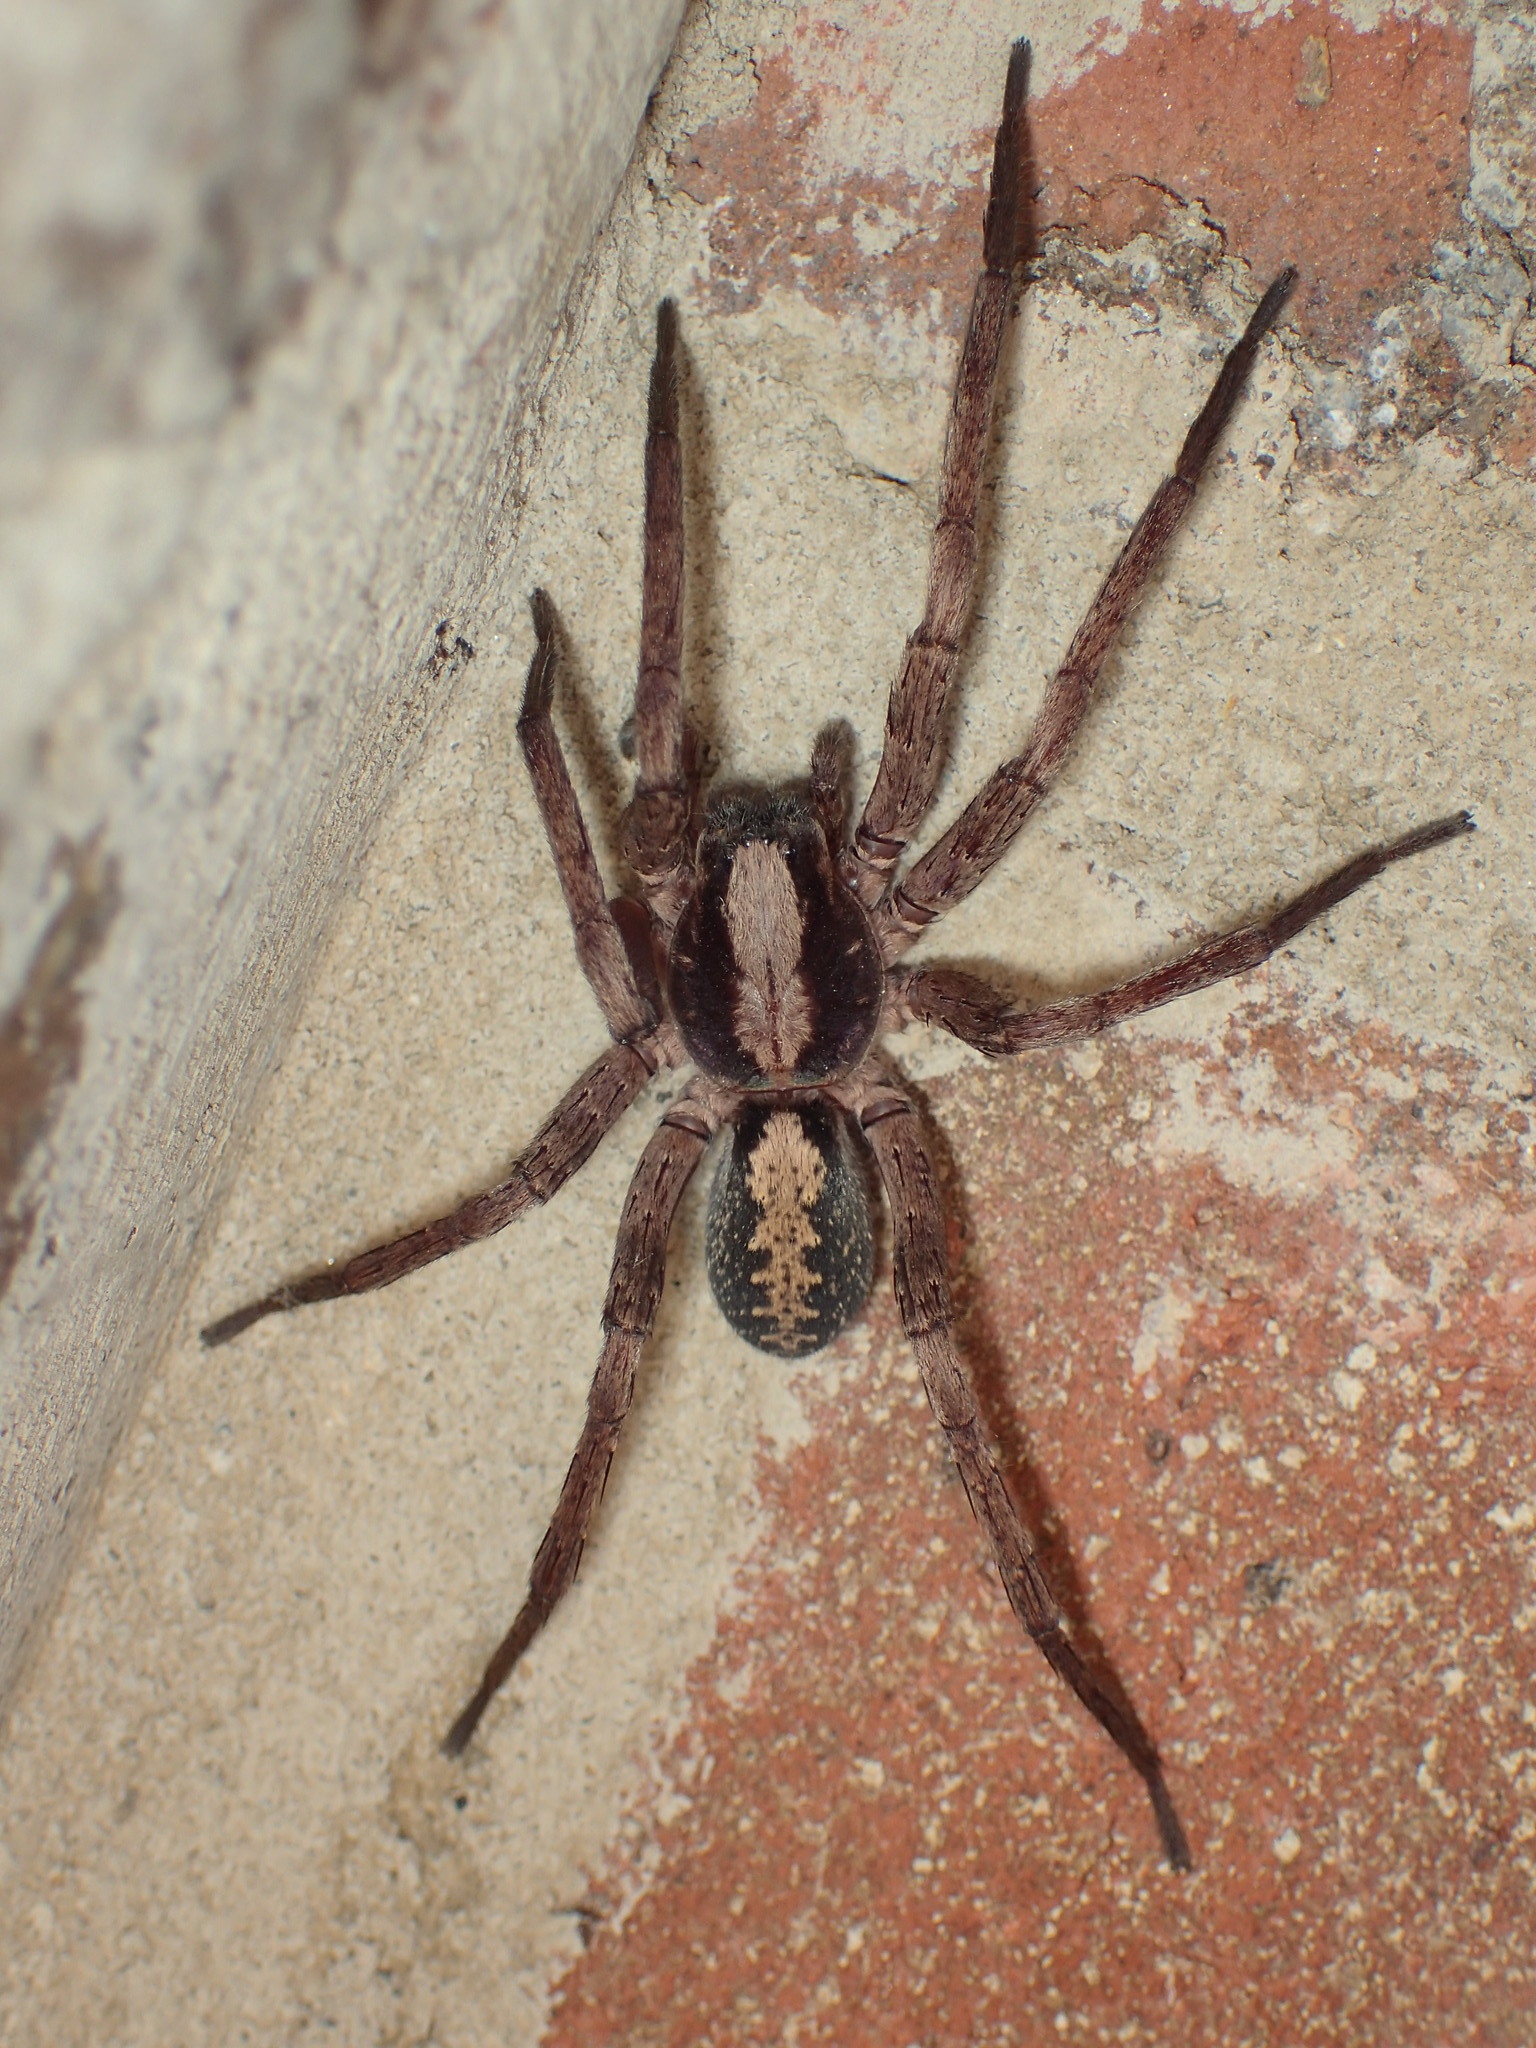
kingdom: Animalia
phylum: Arthropoda
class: Arachnida
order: Araneae
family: Ctenidae
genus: Ctenus
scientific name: Ctenus hibernalis
